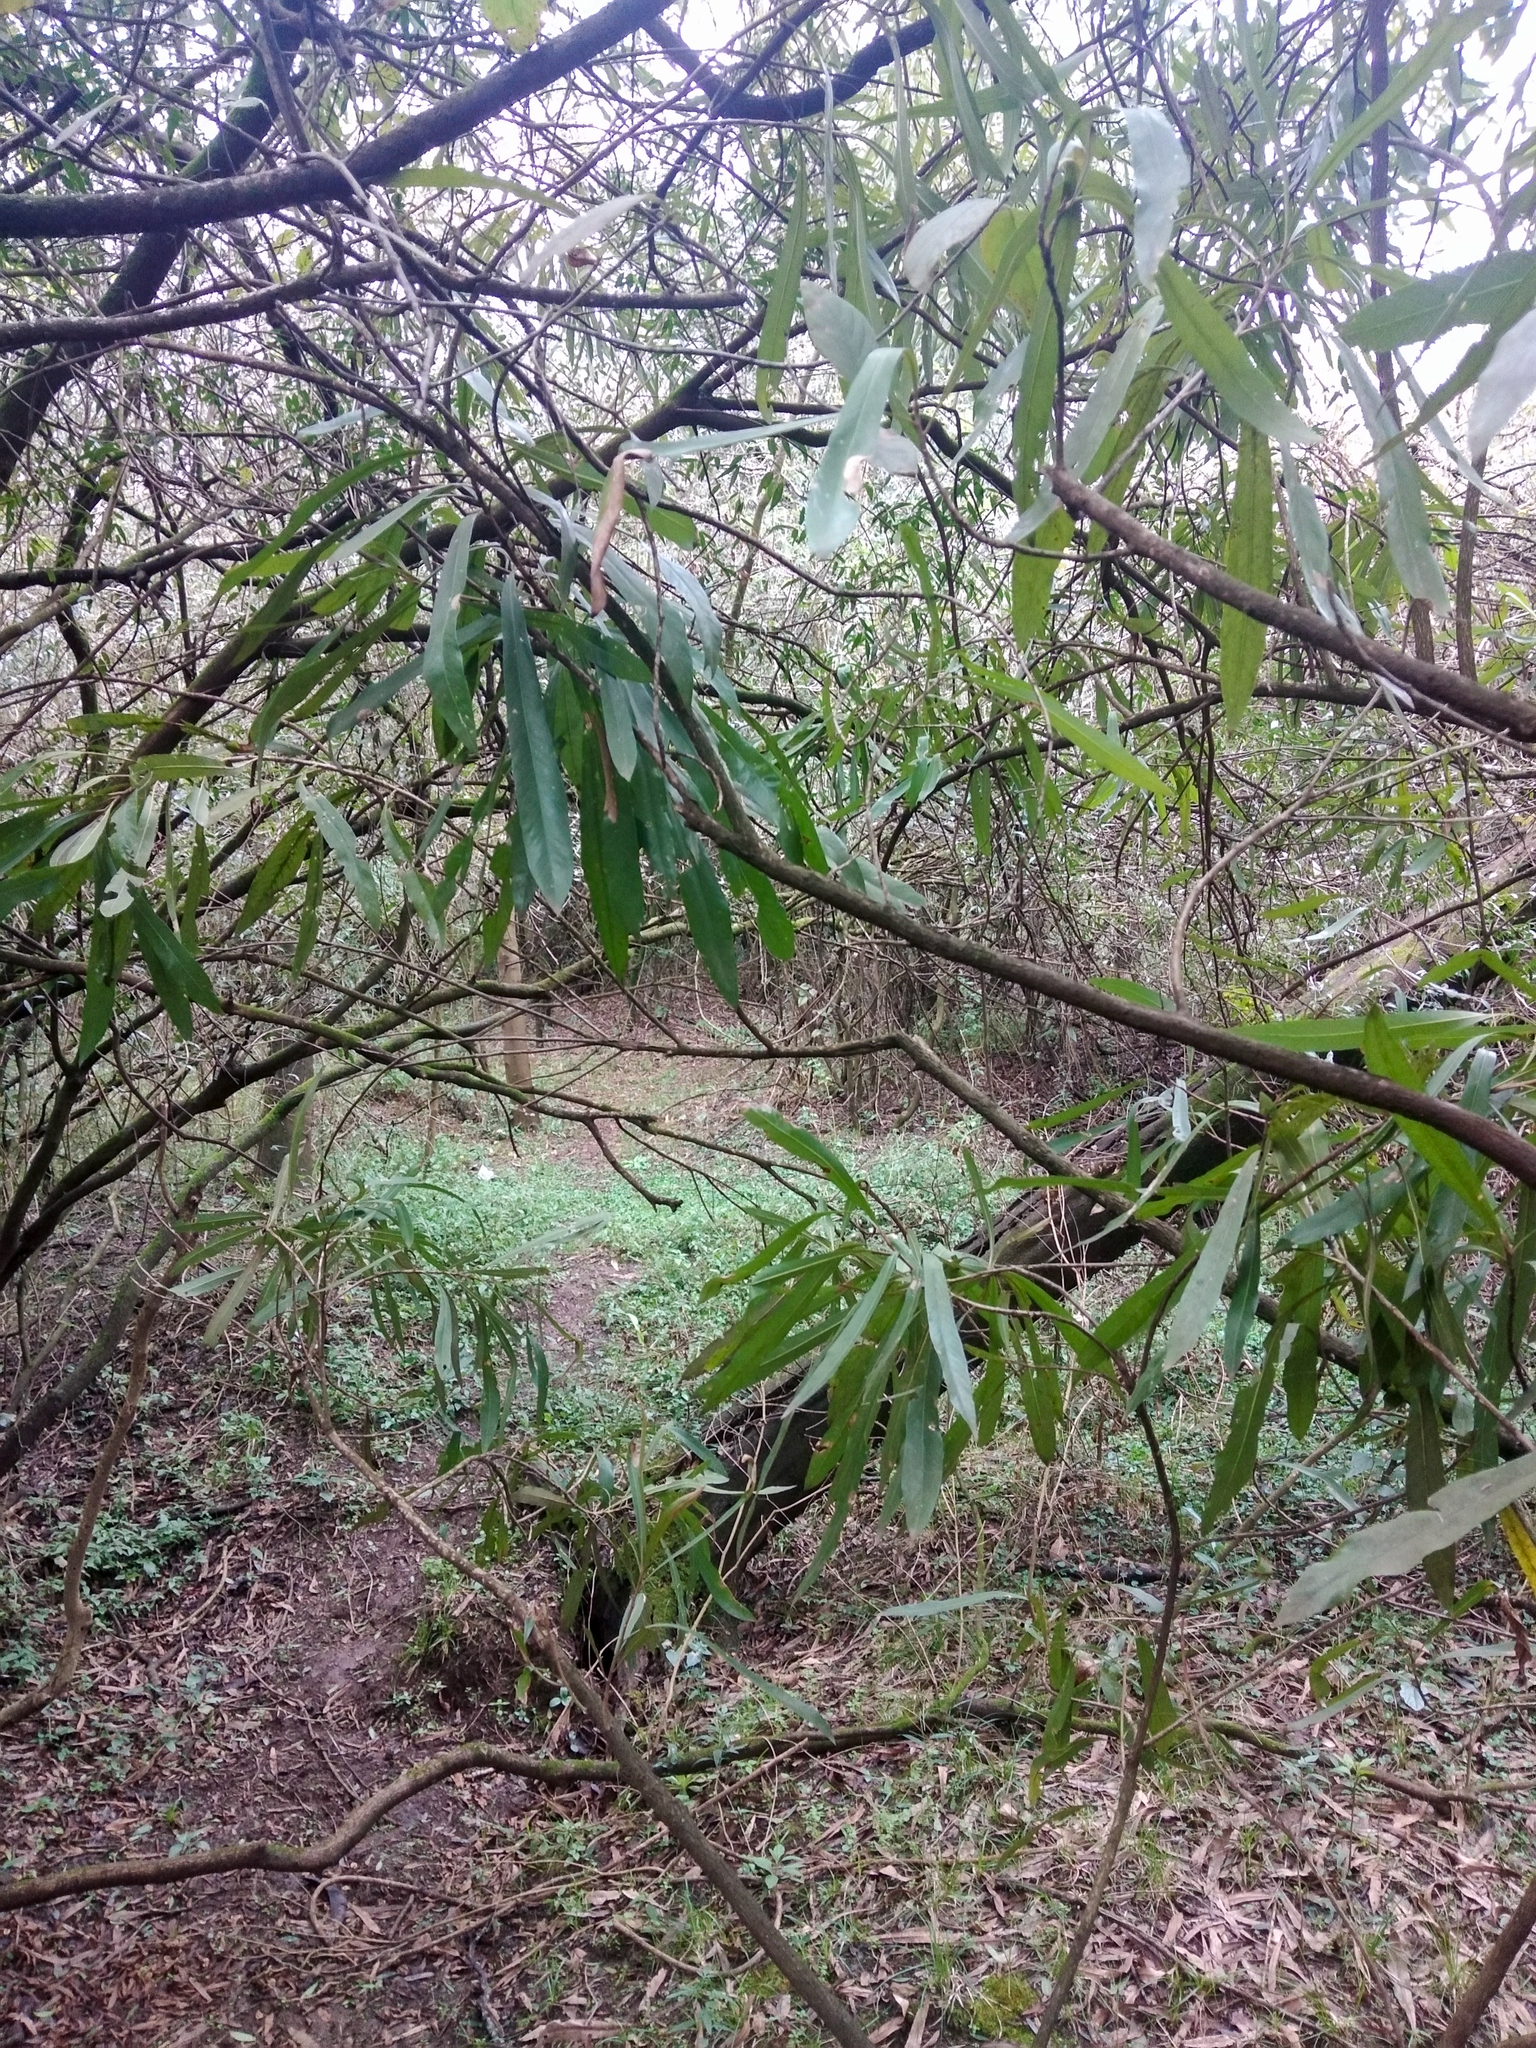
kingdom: Plantae
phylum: Tracheophyta
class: Magnoliopsida
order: Ericales
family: Sapotaceae
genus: Labatia
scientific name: Labatia salicifolia
